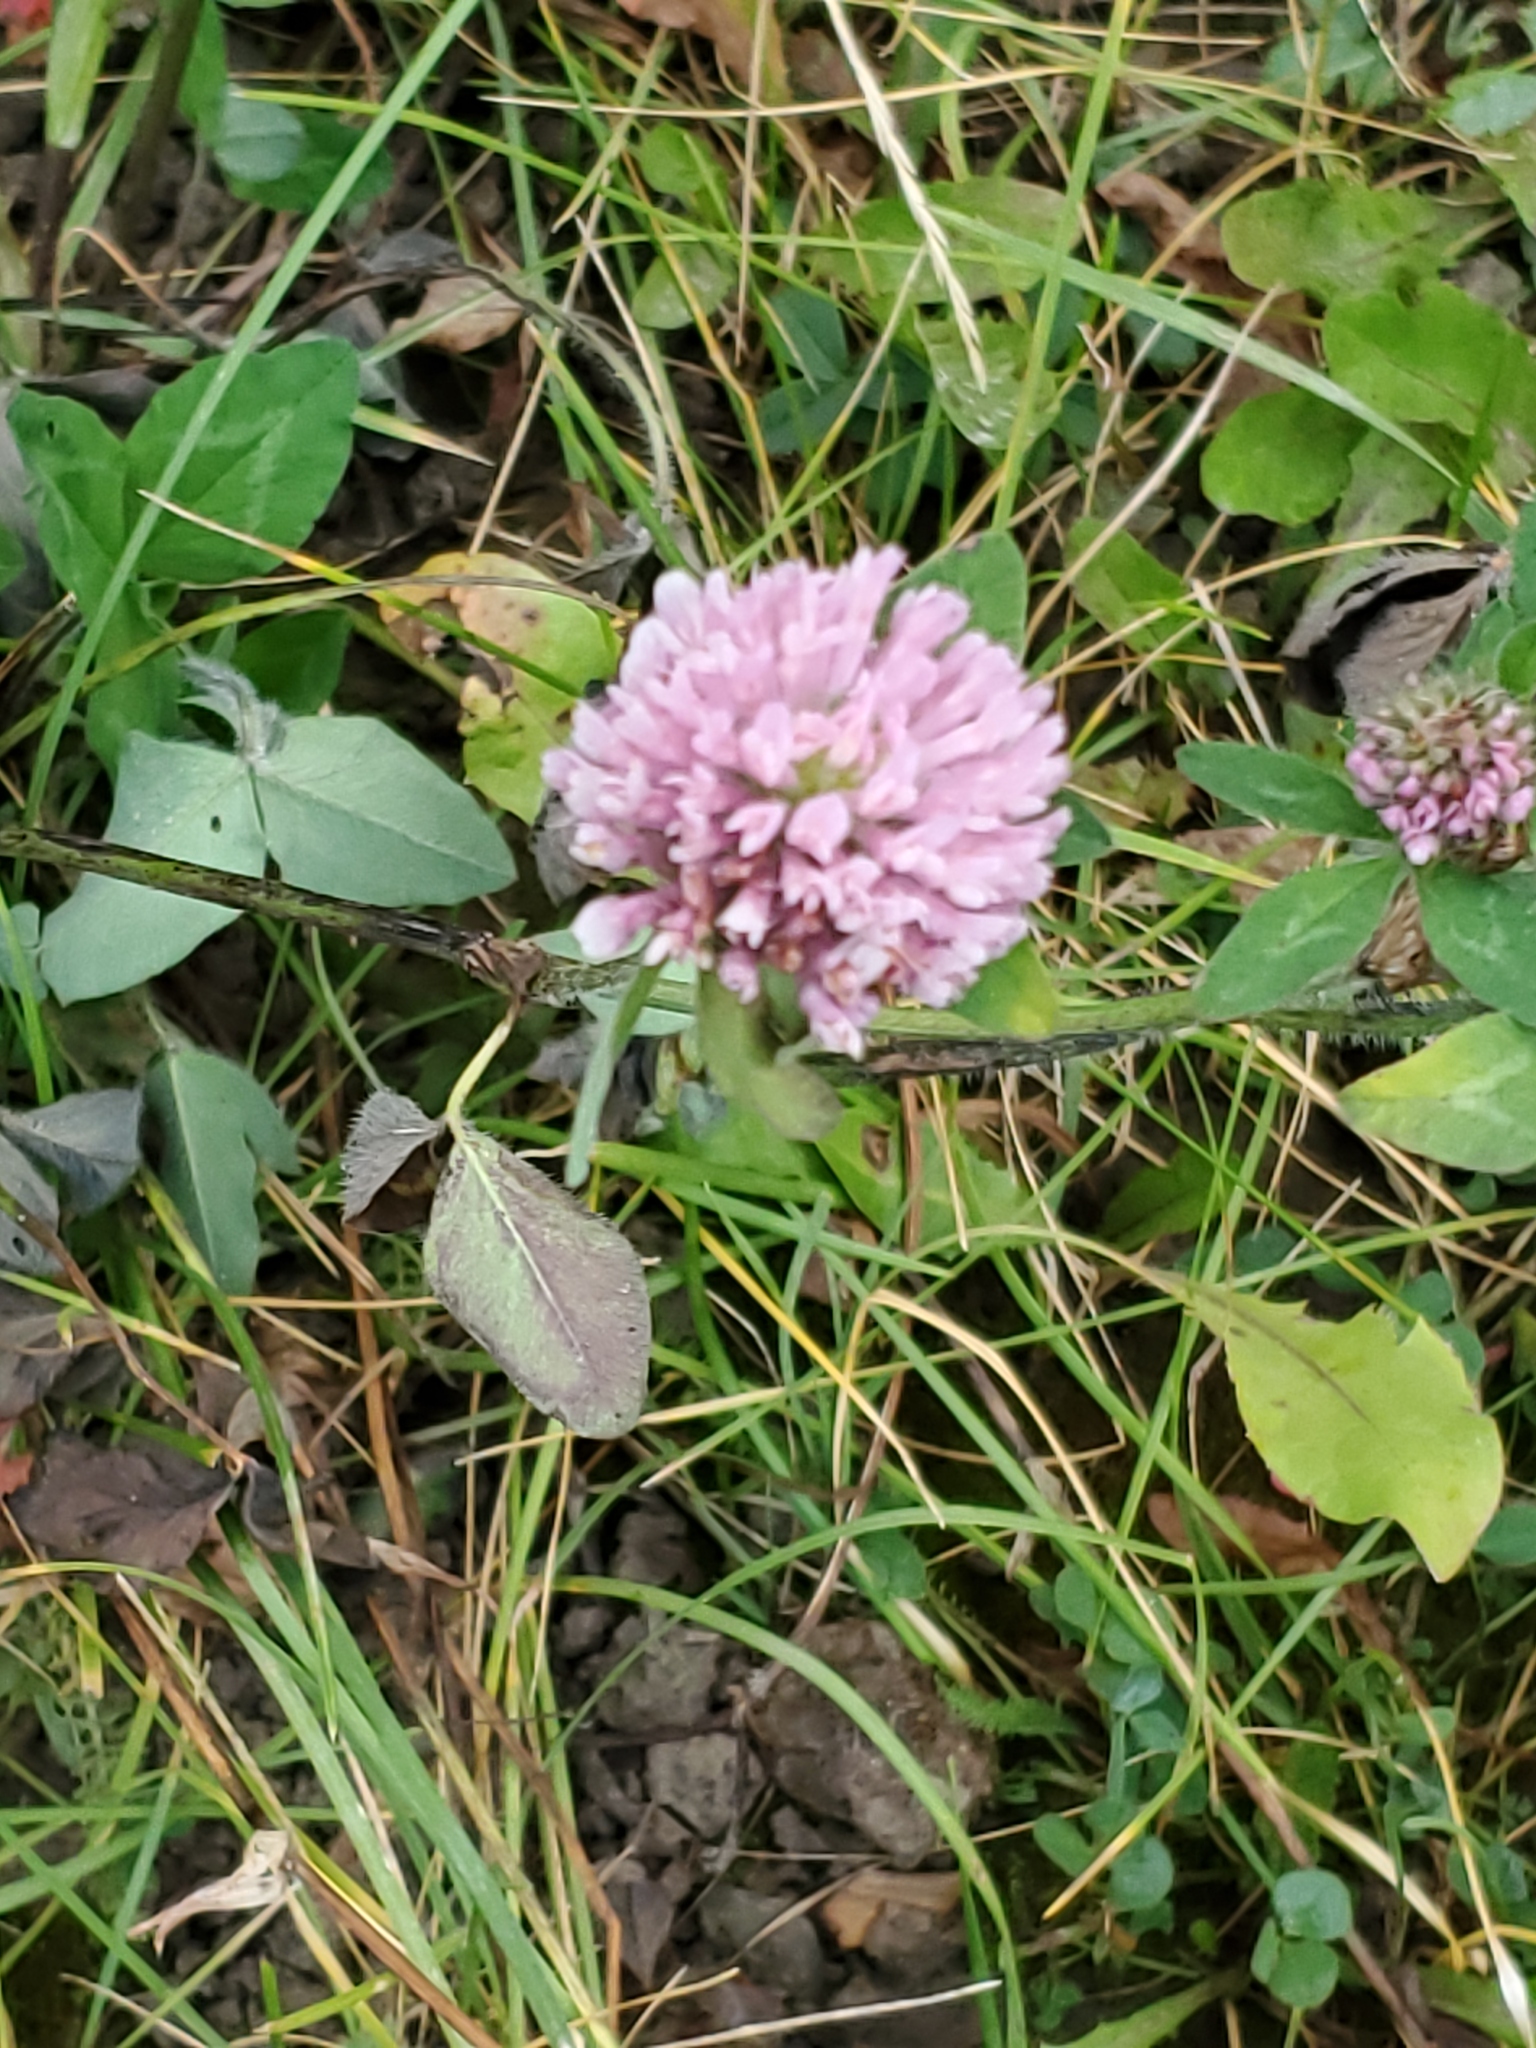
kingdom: Plantae
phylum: Tracheophyta
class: Magnoliopsida
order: Fabales
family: Fabaceae
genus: Trifolium
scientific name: Trifolium pratense
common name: Red clover
